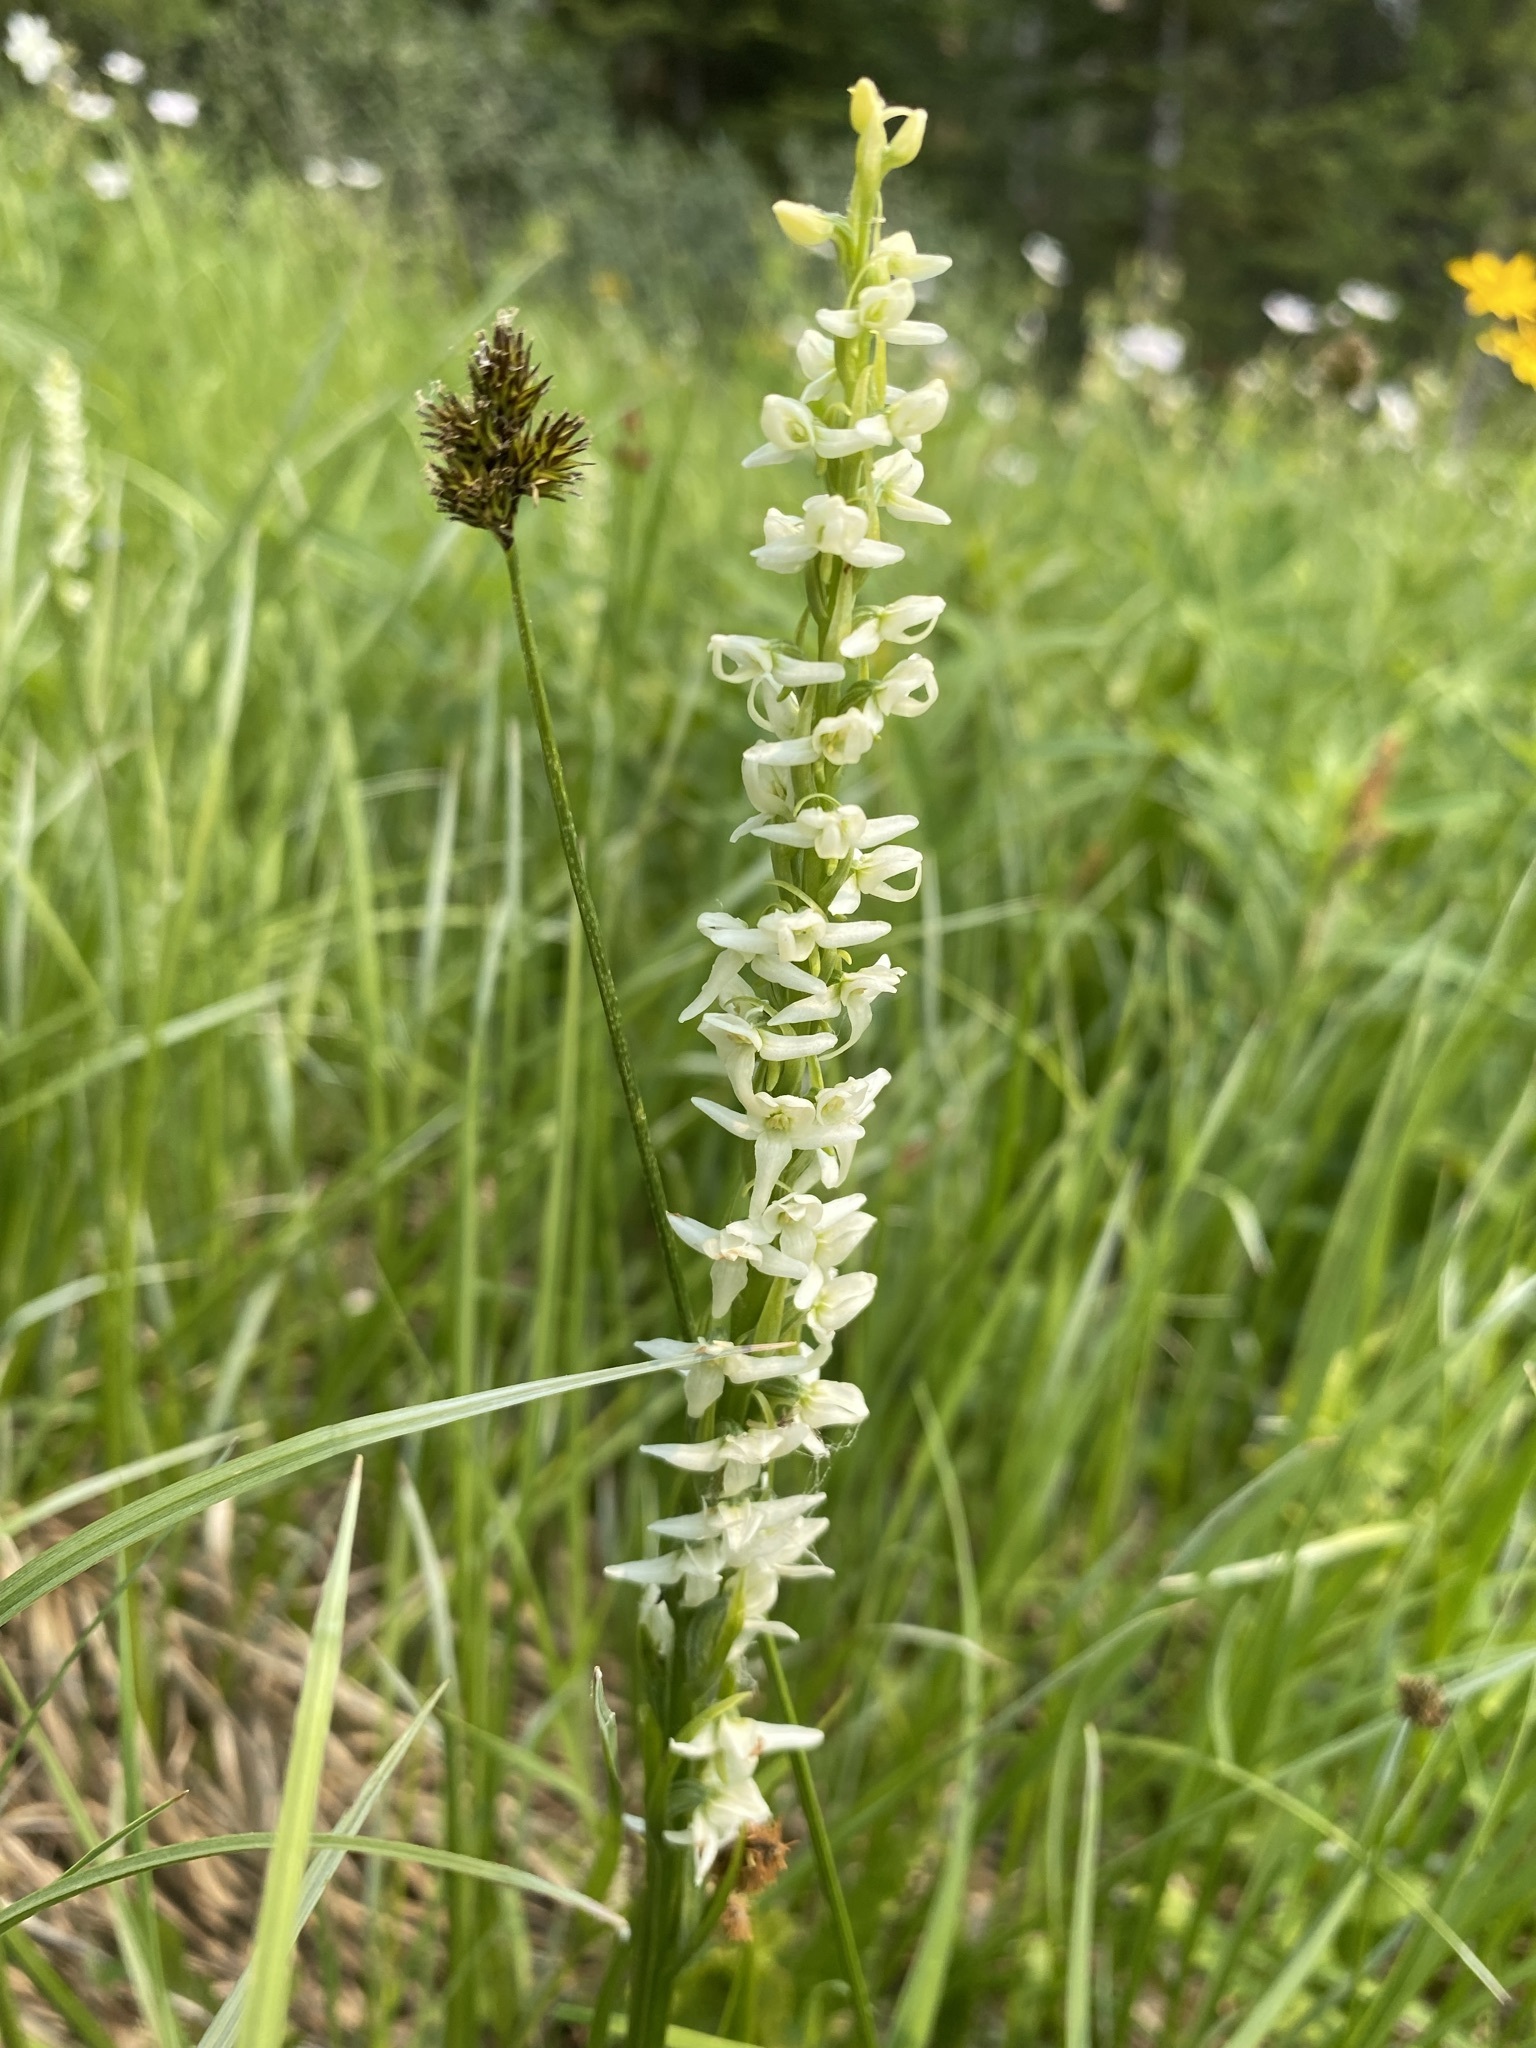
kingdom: Plantae
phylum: Tracheophyta
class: Liliopsida
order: Asparagales
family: Orchidaceae
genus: Platanthera
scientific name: Platanthera dilatata
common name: Bog candles
